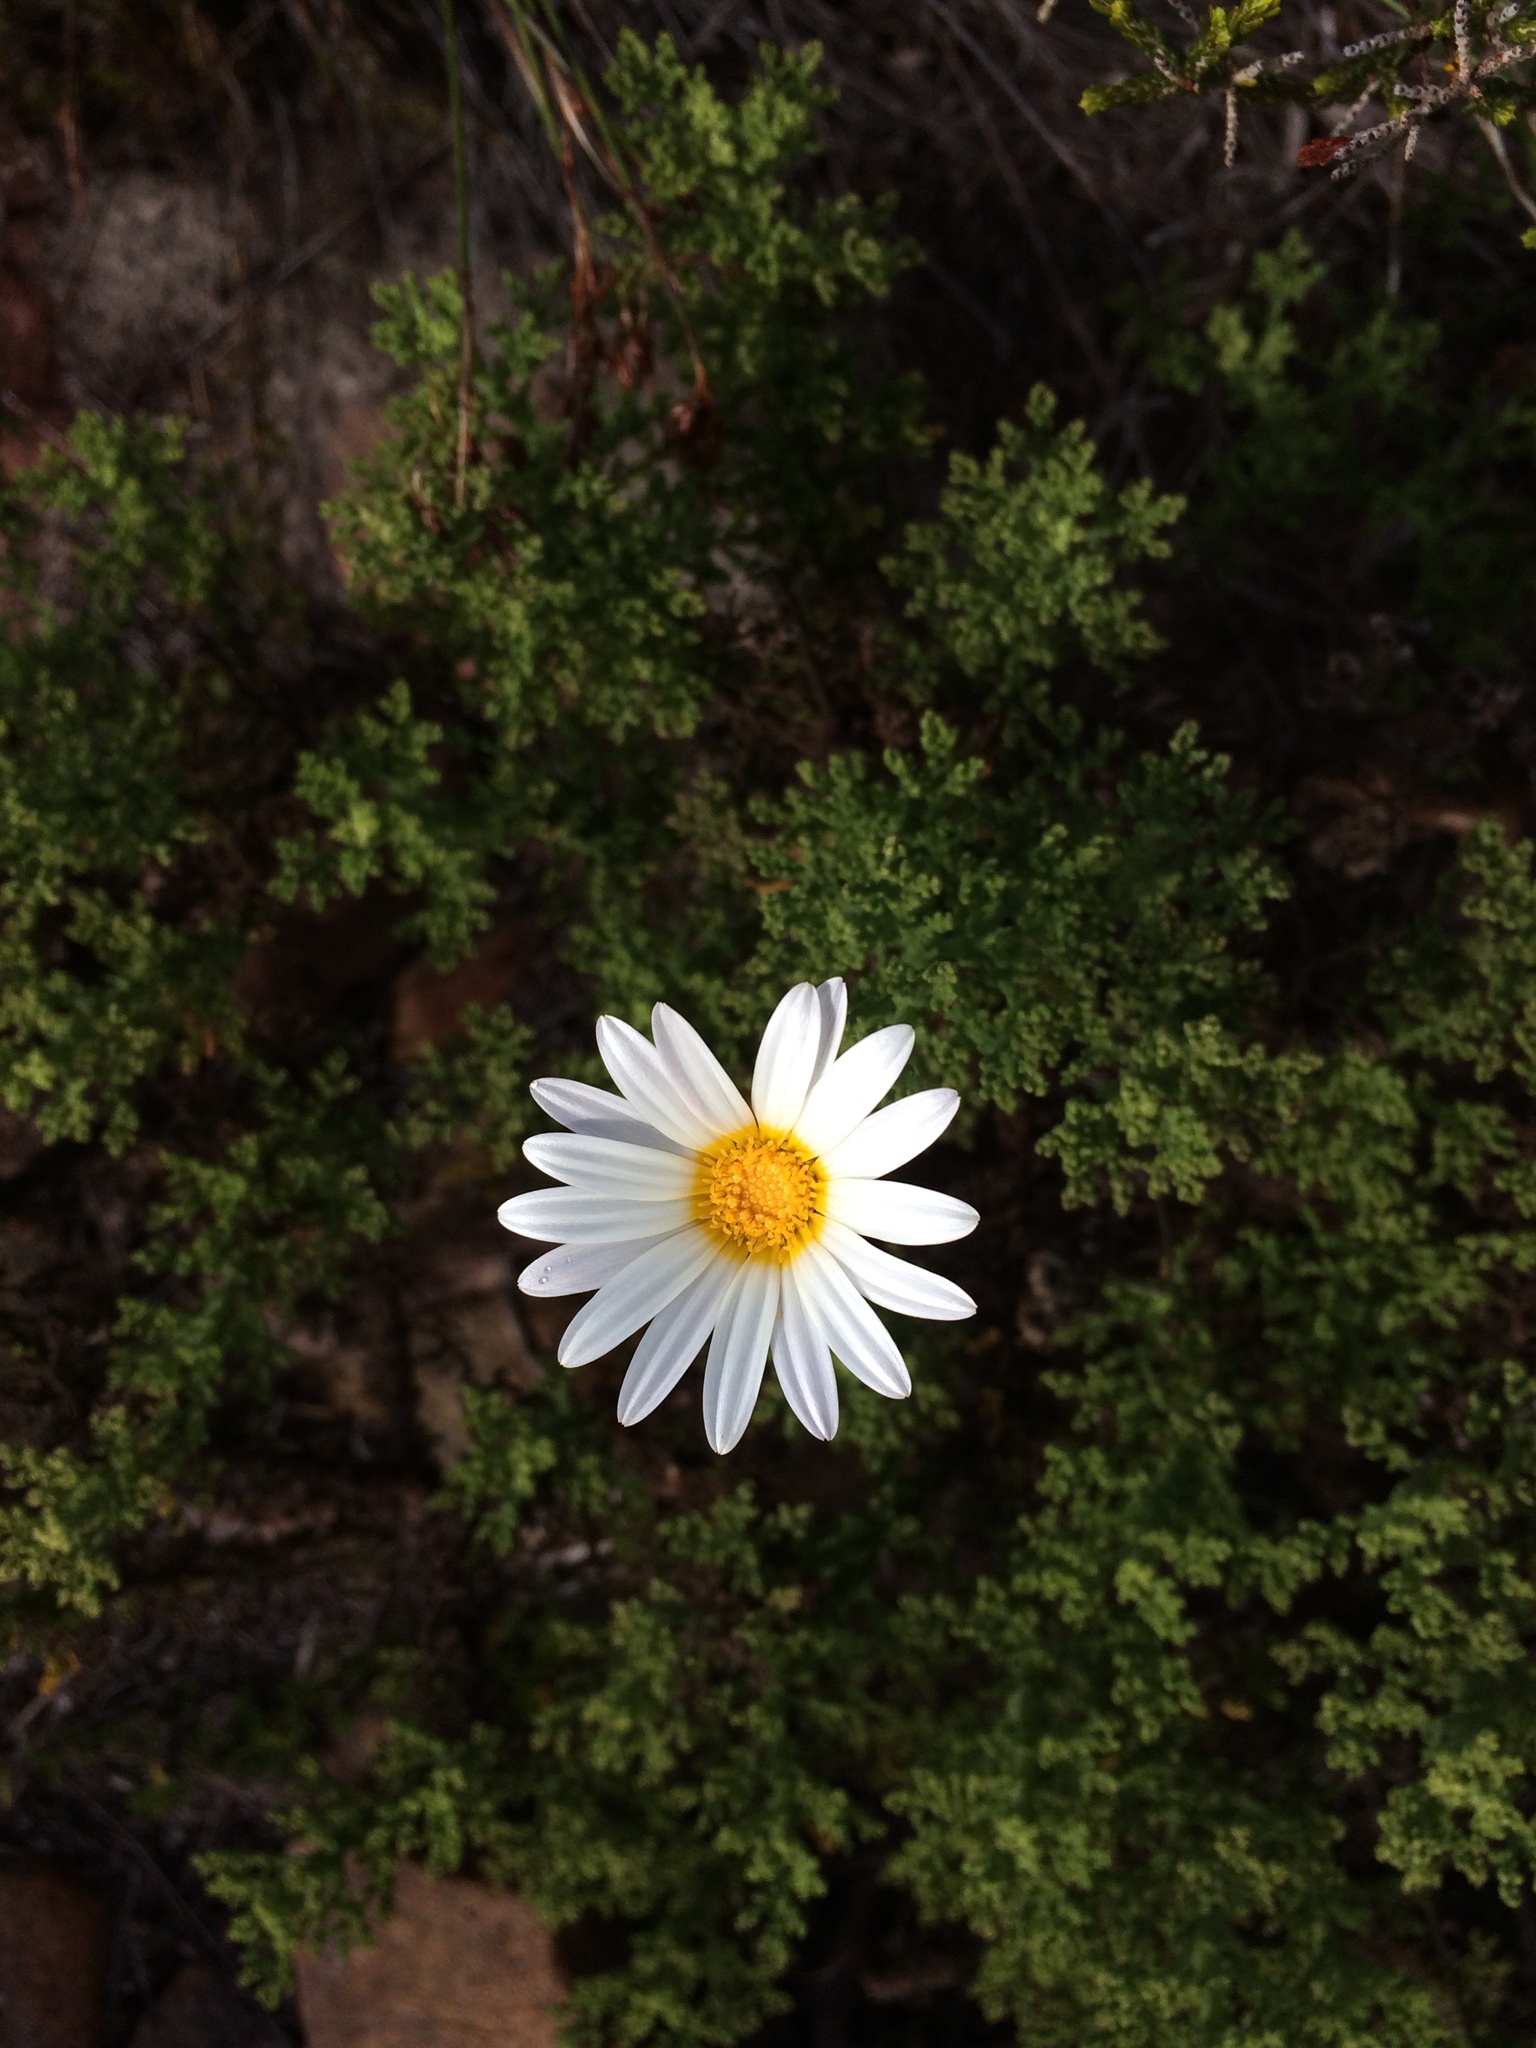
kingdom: Plantae
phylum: Tracheophyta
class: Magnoliopsida
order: Asterales
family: Asteraceae
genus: Arctotis
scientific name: Arctotis aspera
